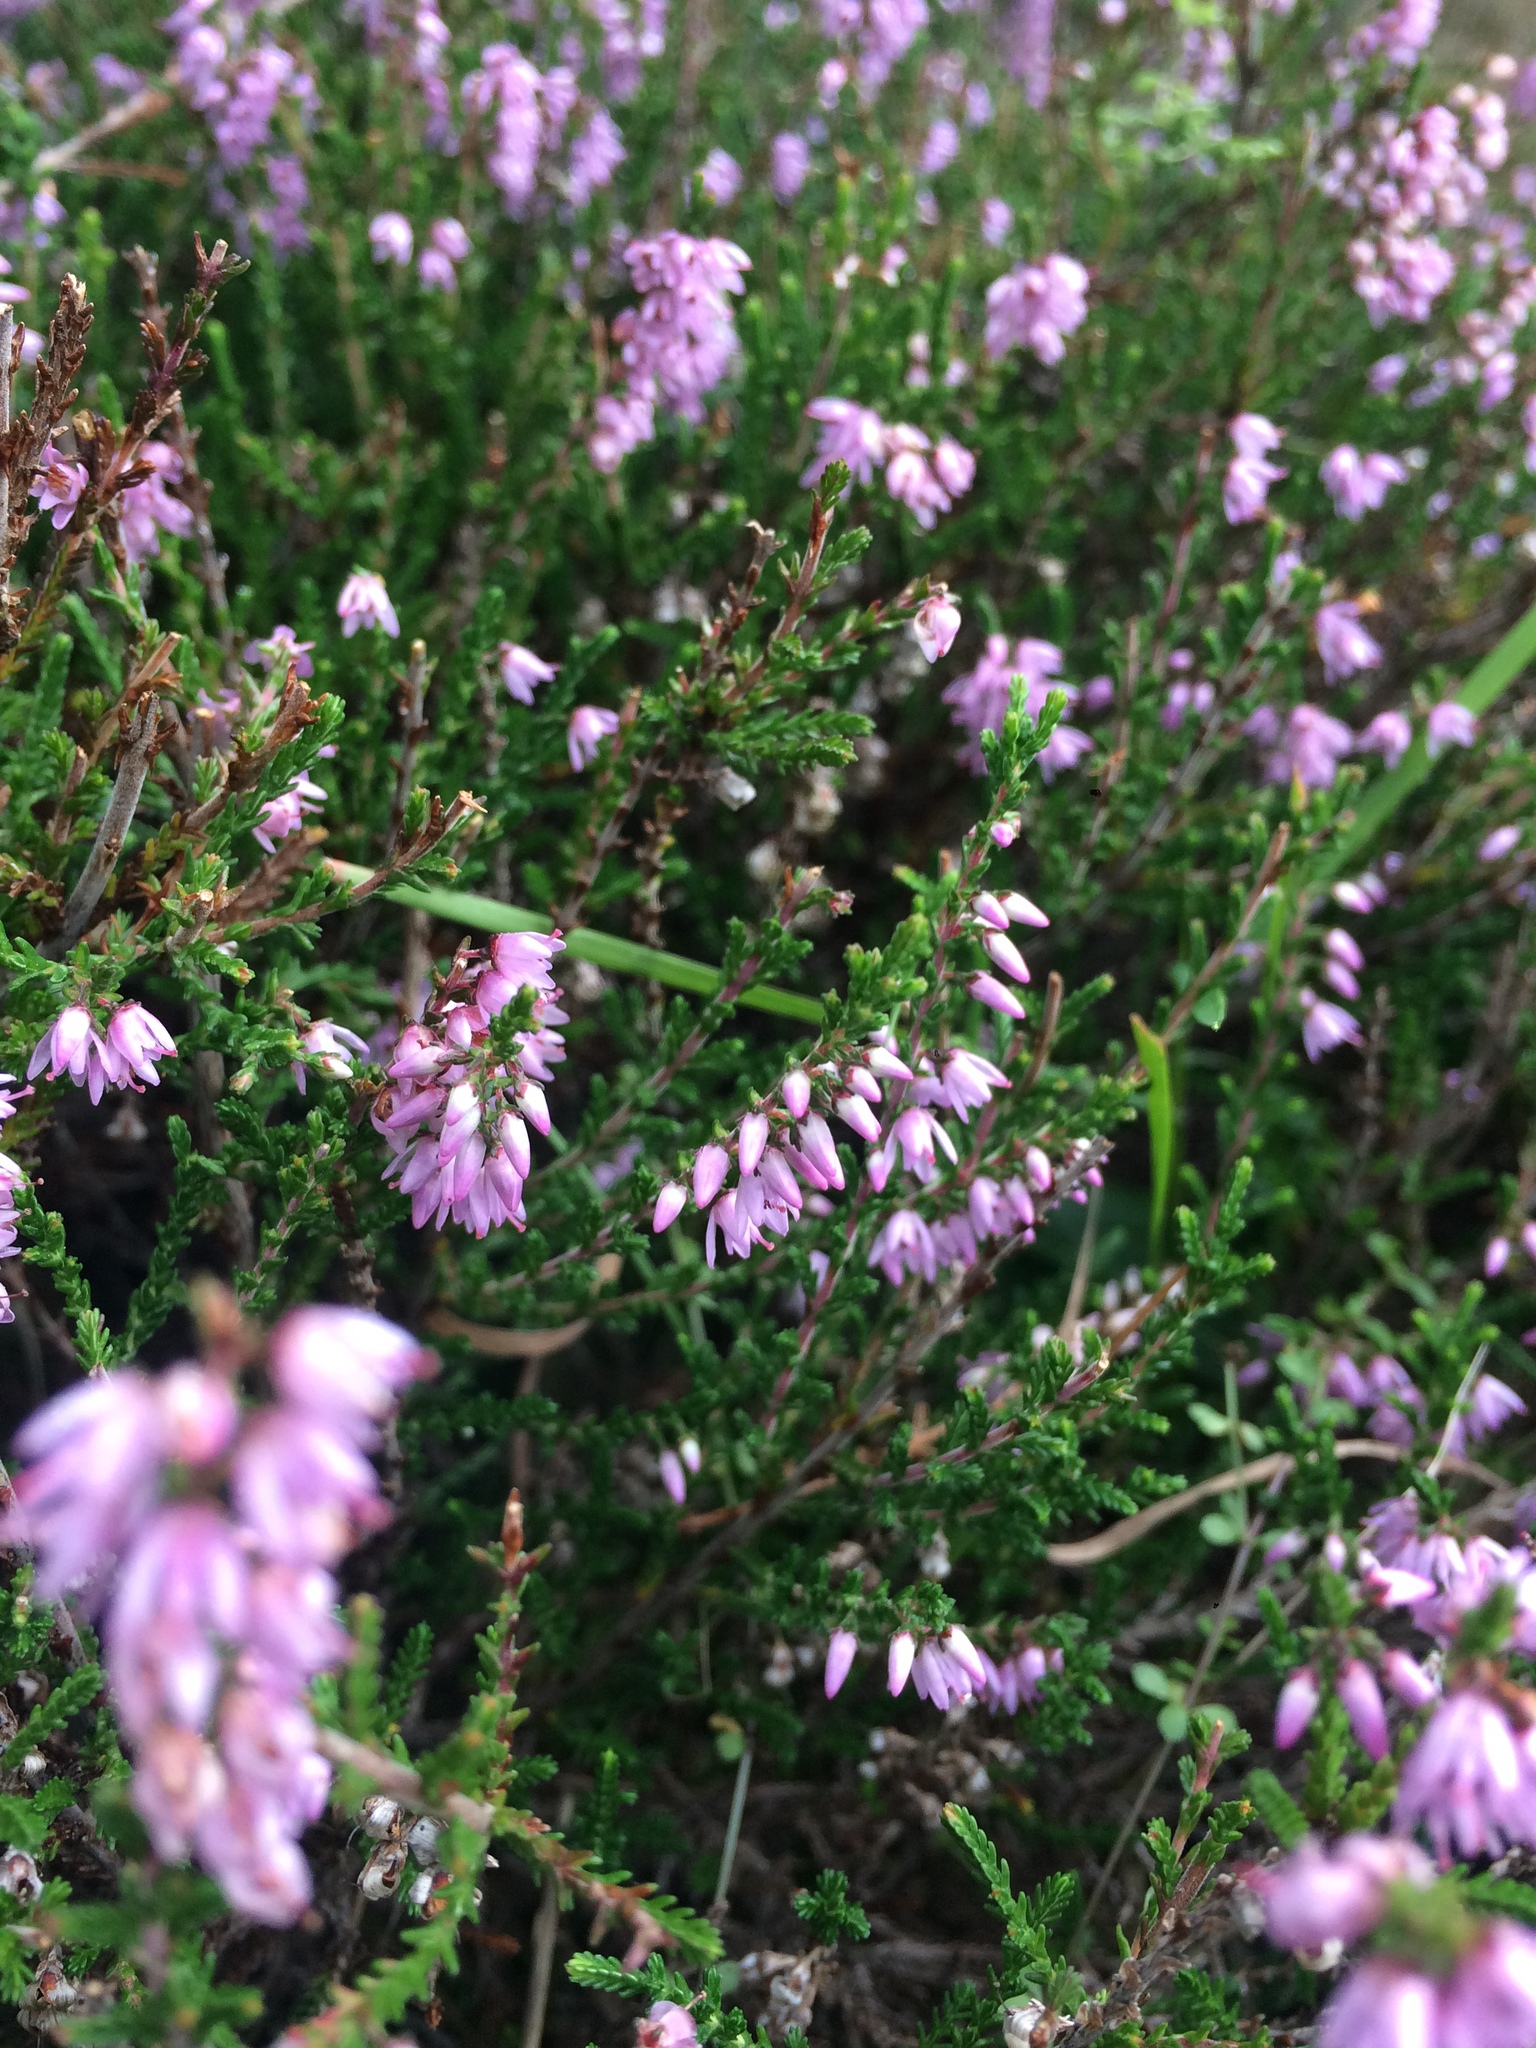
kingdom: Plantae
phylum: Tracheophyta
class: Magnoliopsida
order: Ericales
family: Ericaceae
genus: Calluna
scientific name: Calluna vulgaris
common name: Heather
